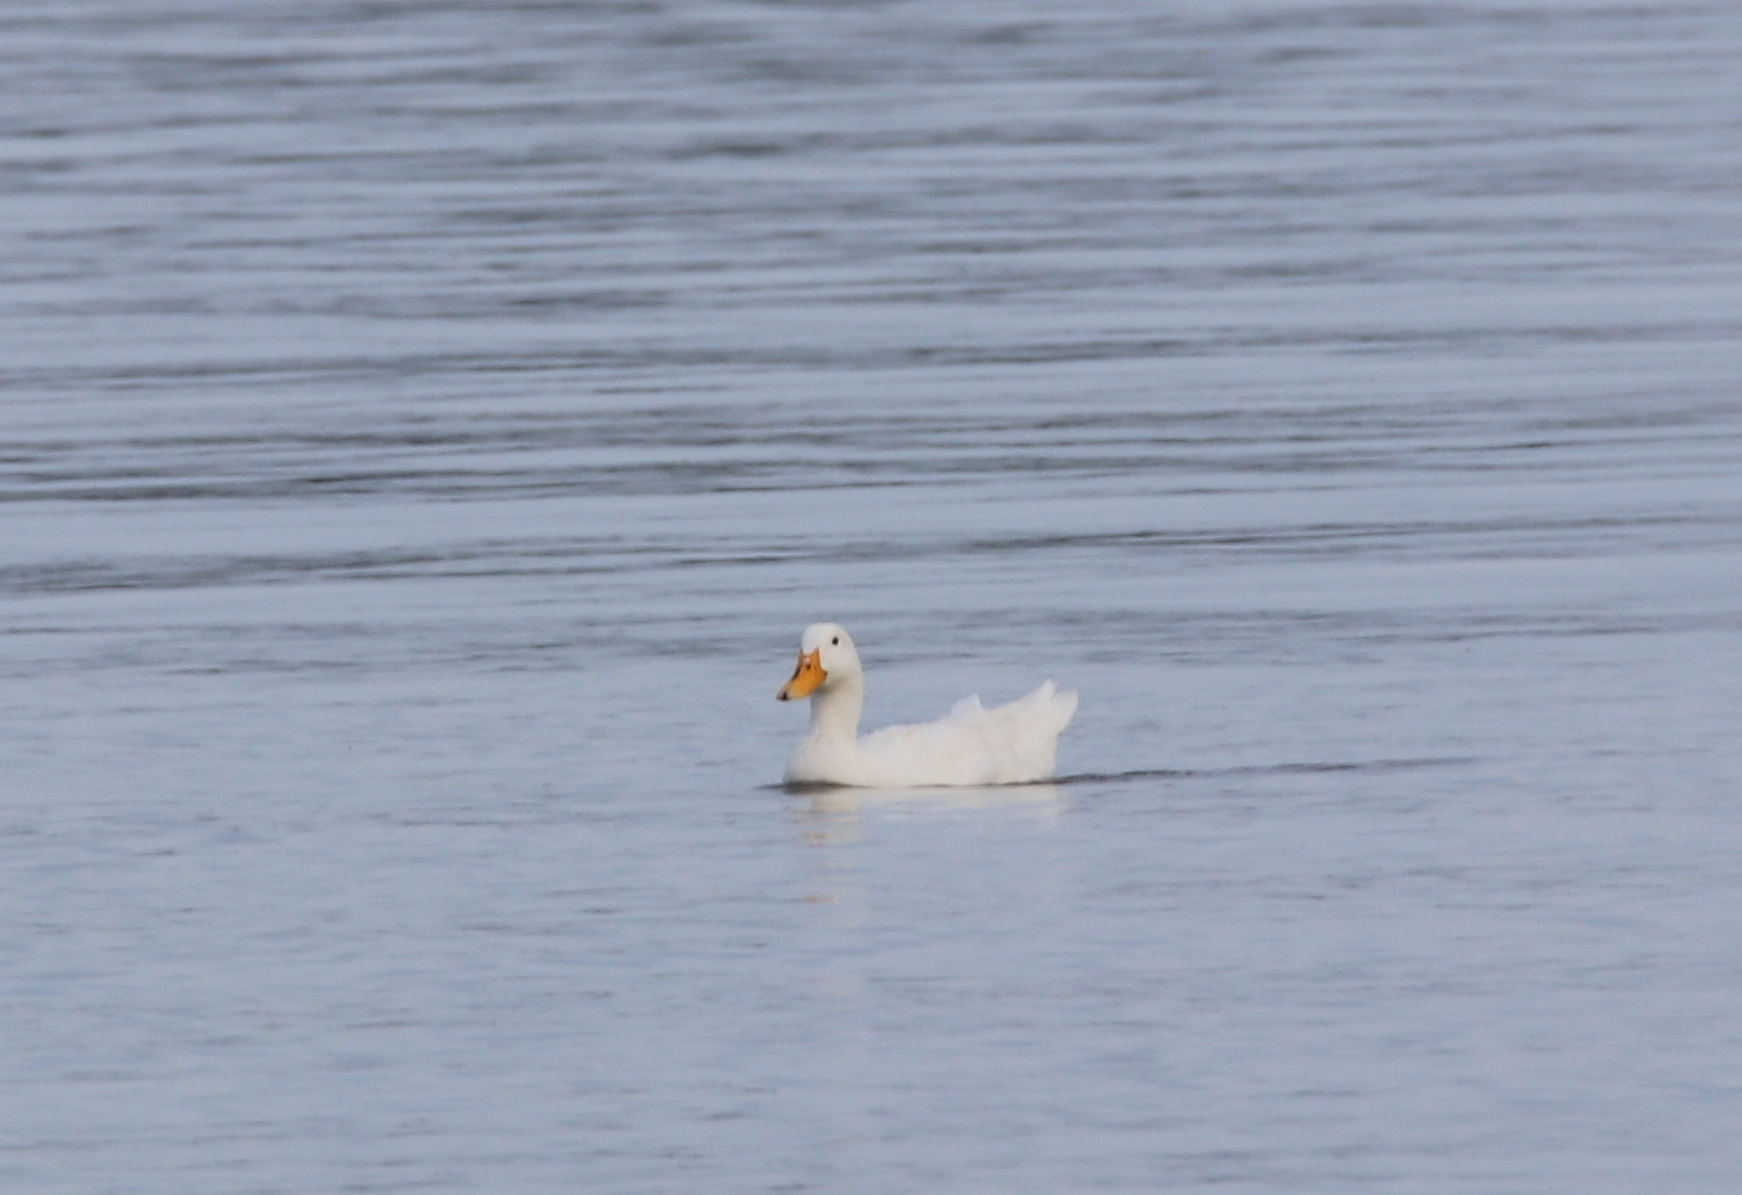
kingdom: Animalia
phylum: Chordata
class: Aves
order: Anseriformes
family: Anatidae
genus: Anas
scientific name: Anas platyrhynchos
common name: Mallard
